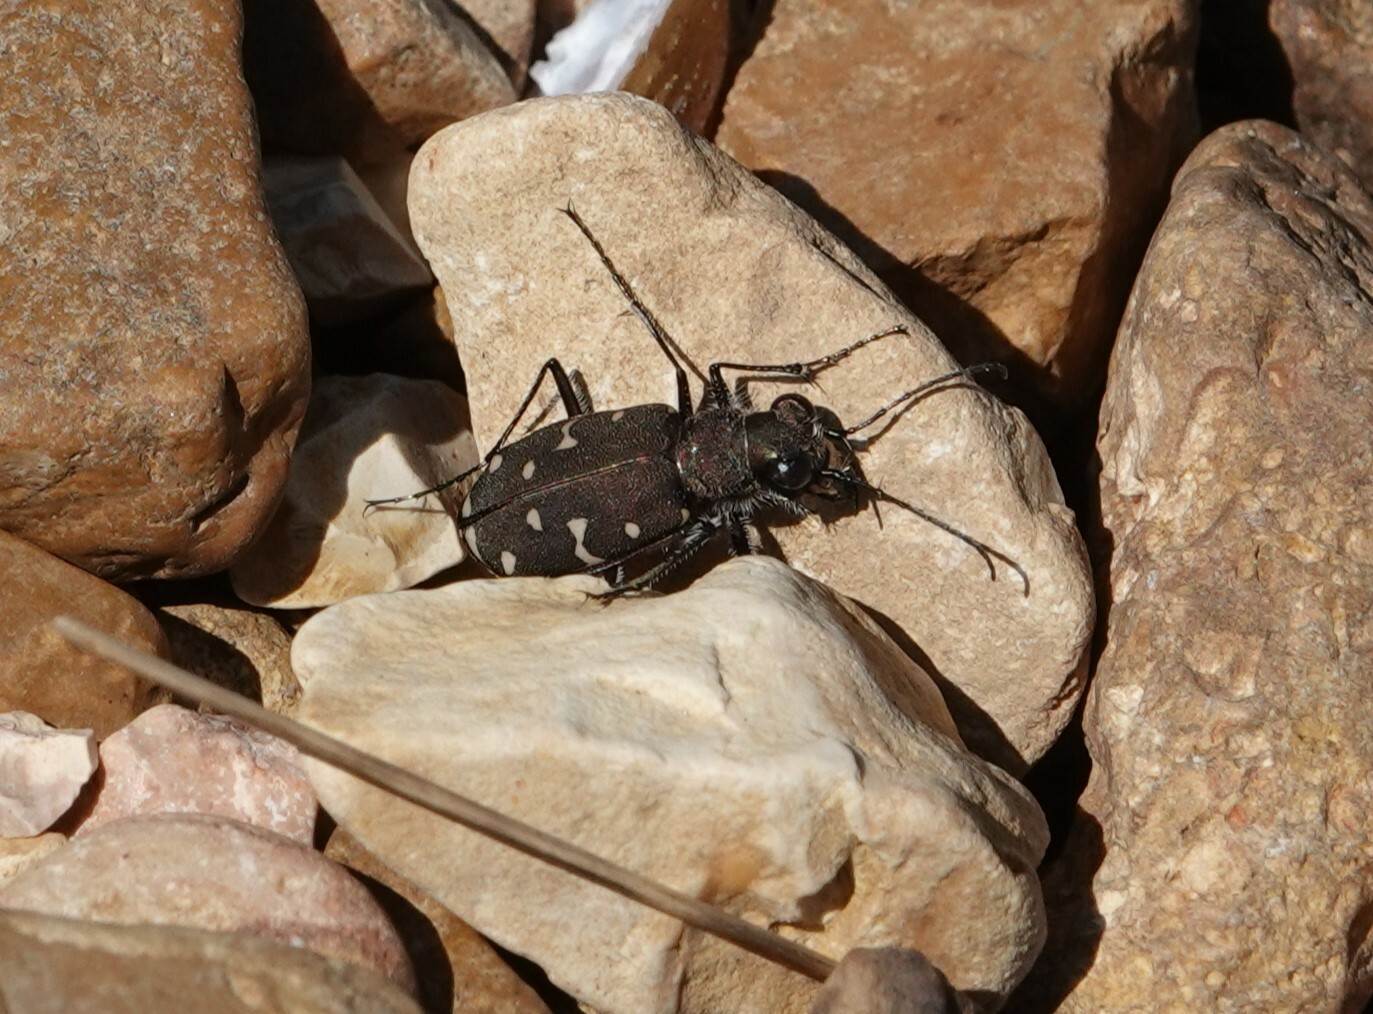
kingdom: Animalia
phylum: Arthropoda
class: Insecta
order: Coleoptera
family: Carabidae
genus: Cicindela
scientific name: Cicindela duodecimguttata
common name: Twelve-spotted tiger beetle
